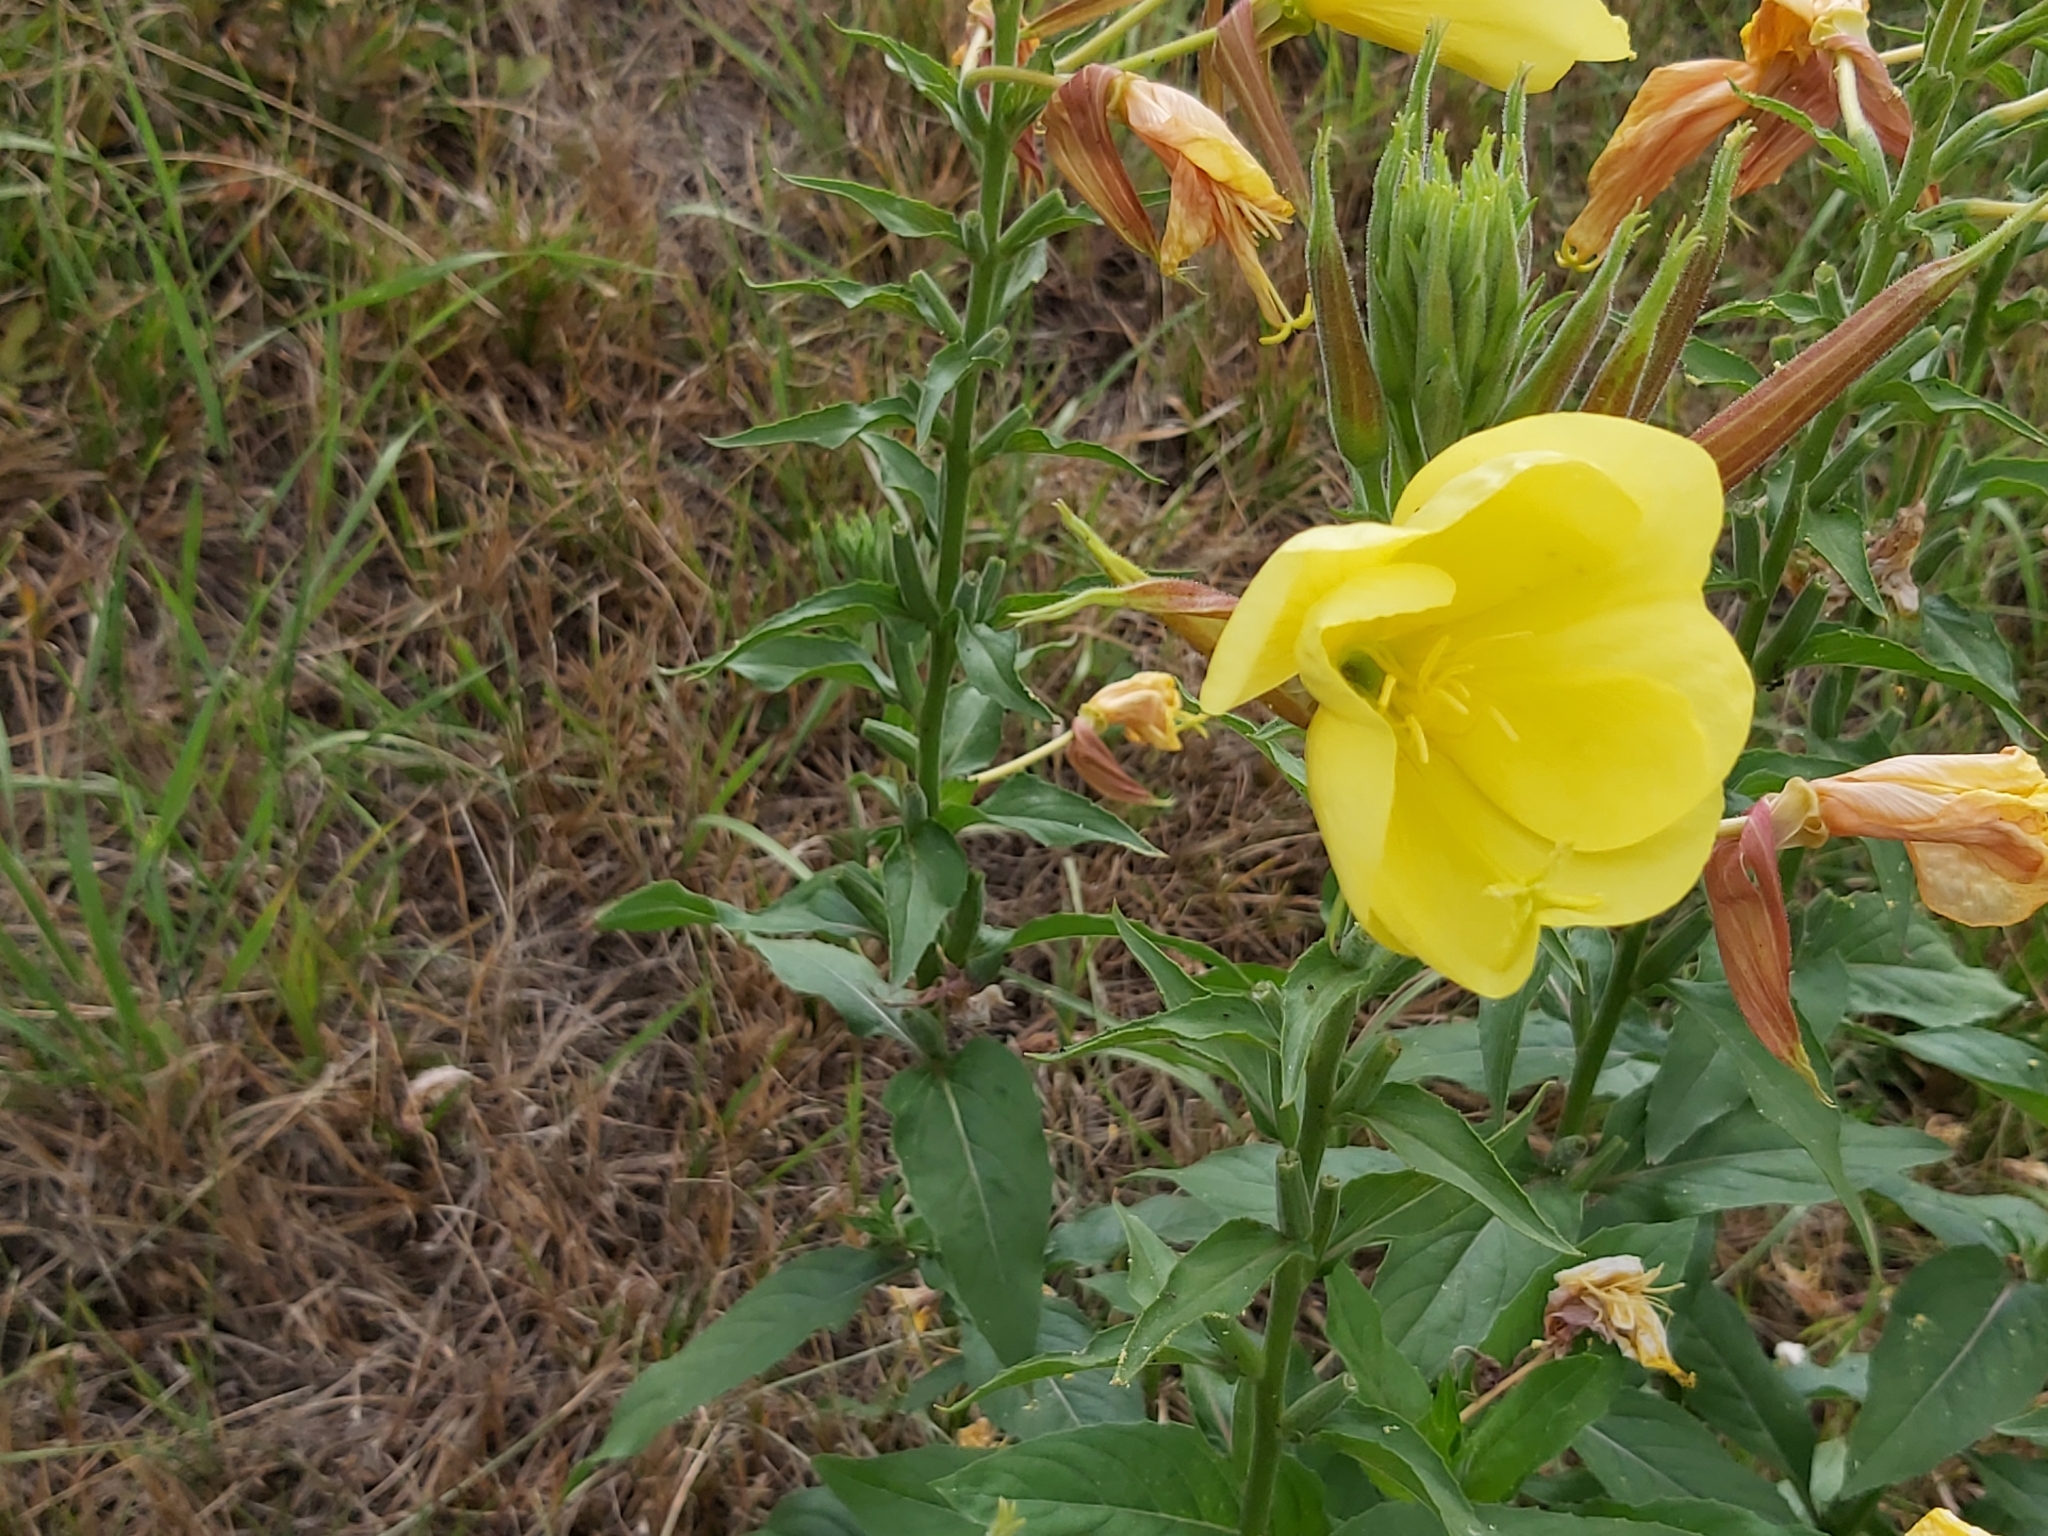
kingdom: Plantae
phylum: Tracheophyta
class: Magnoliopsida
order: Myrtales
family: Onagraceae
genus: Oenothera
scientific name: Oenothera glazioviana
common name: Large-flowered evening-primrose
